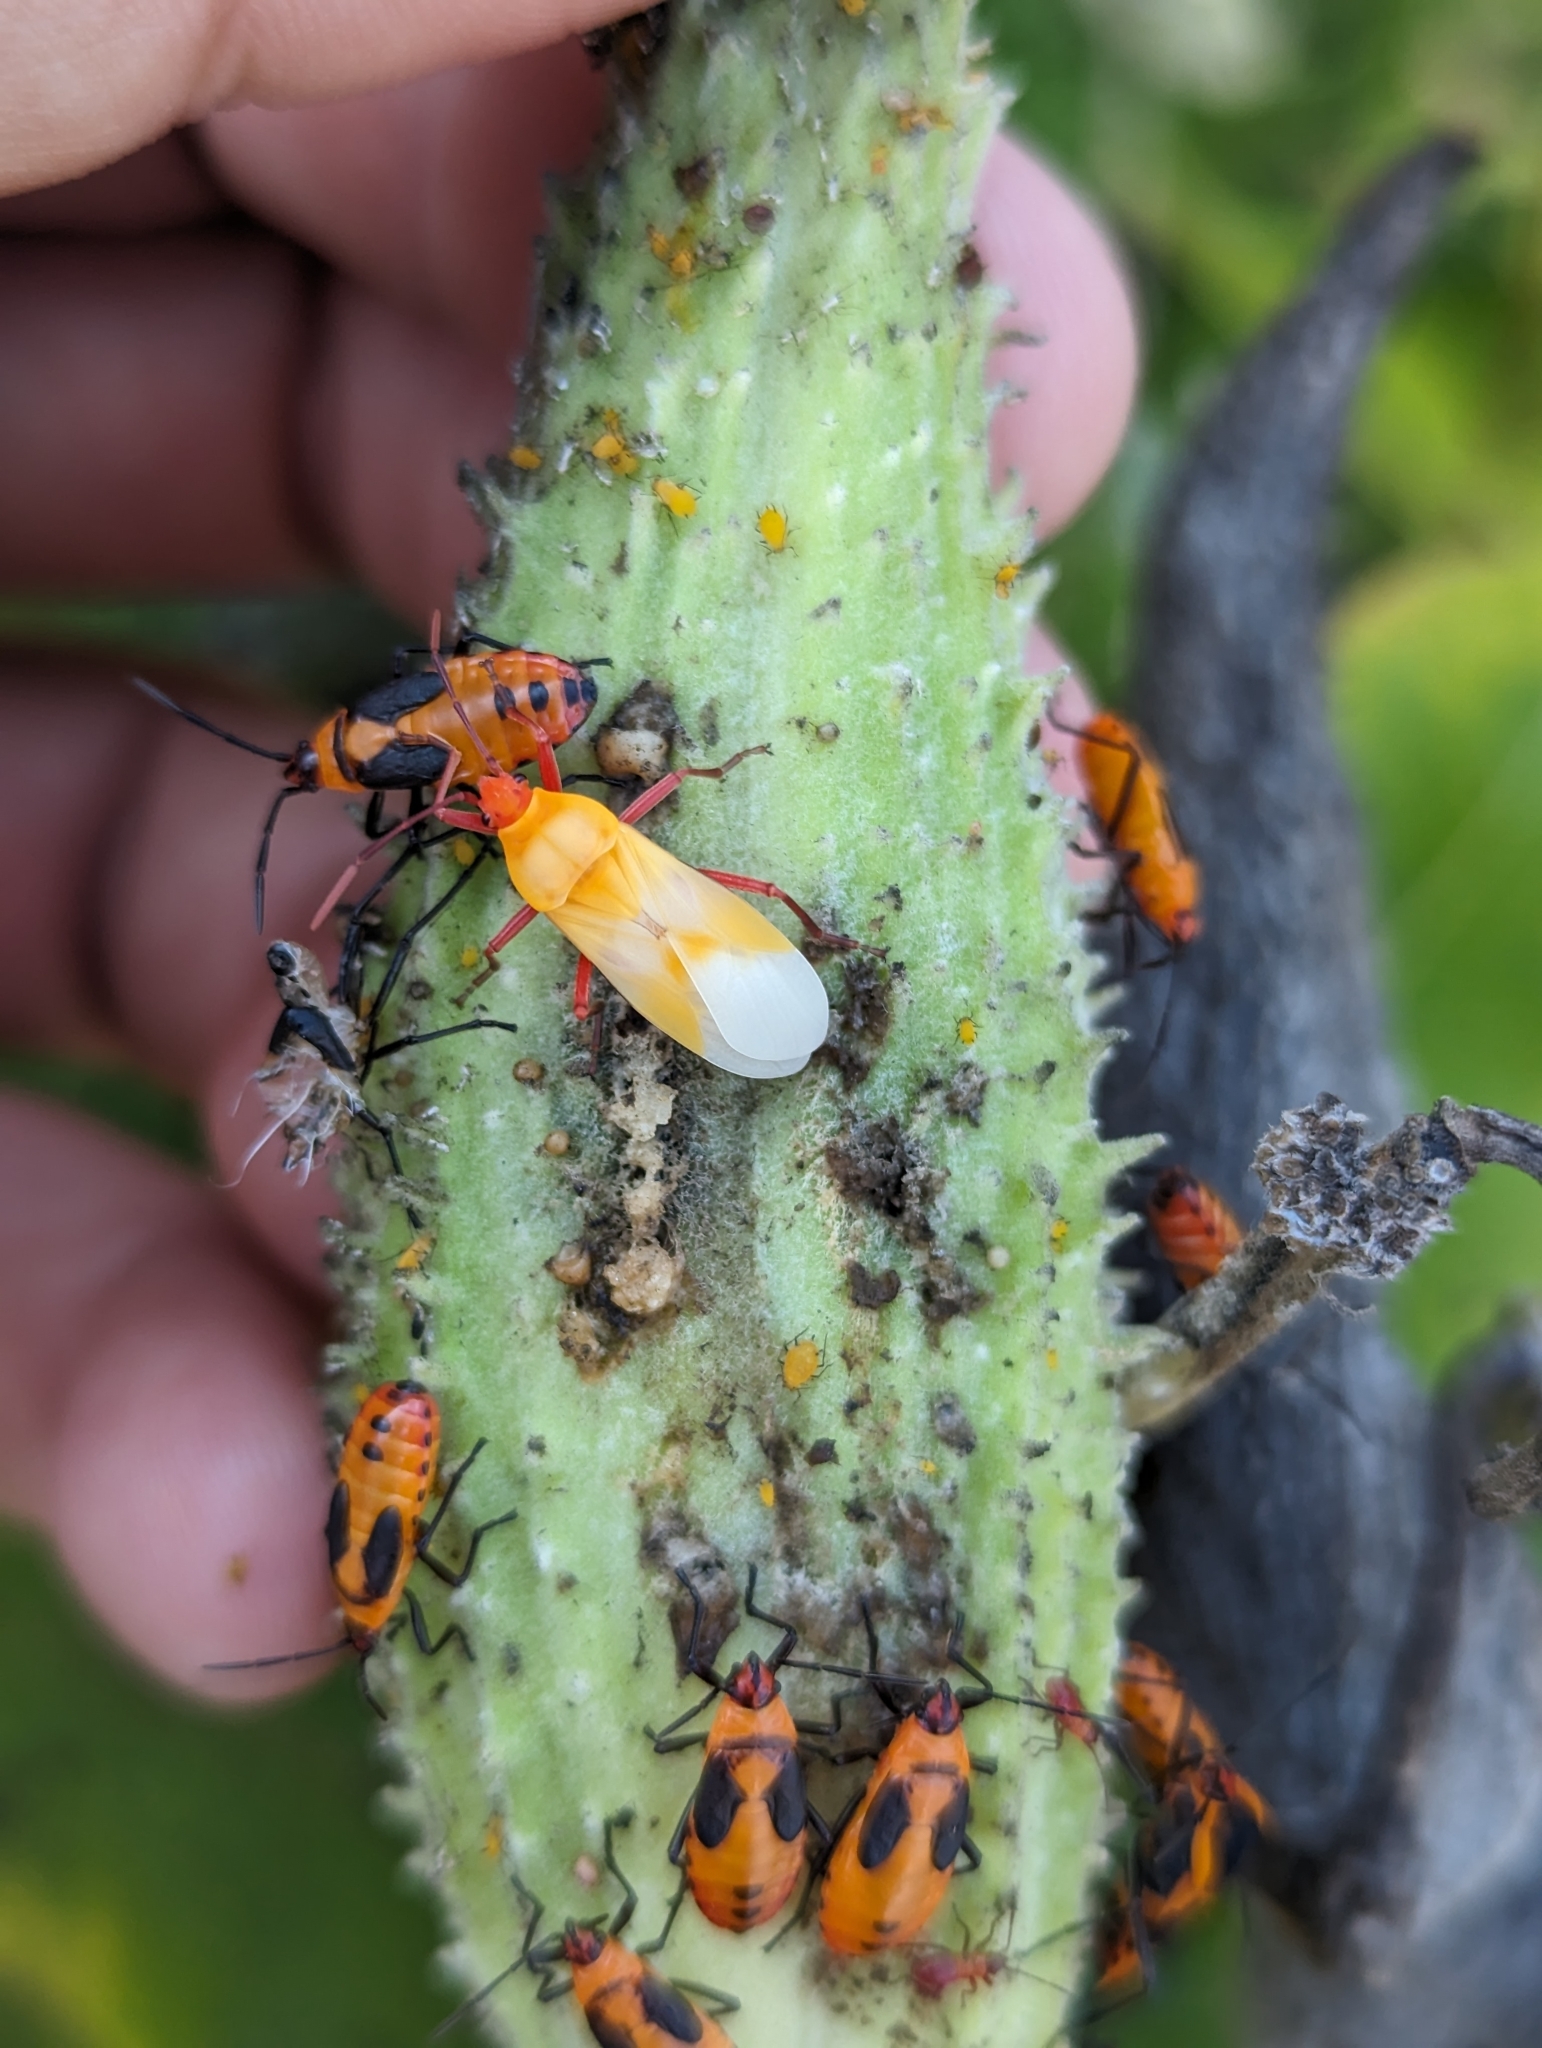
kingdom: Animalia
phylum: Arthropoda
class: Insecta
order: Hemiptera
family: Lygaeidae
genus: Oncopeltus
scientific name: Oncopeltus fasciatus
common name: Large milkweed bug
